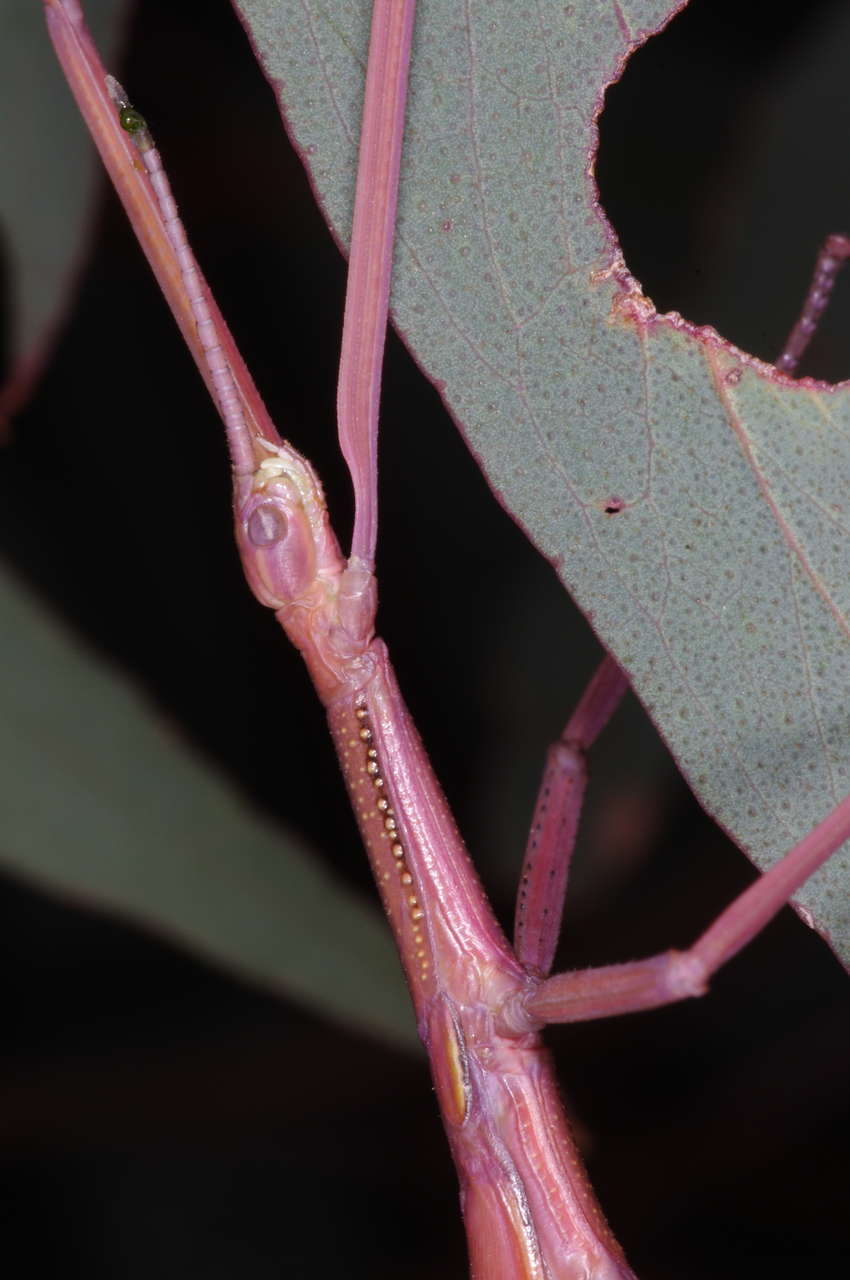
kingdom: Animalia
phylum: Arthropoda
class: Insecta
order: Phasmida
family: Phasmatidae
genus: Didymuria
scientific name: Didymuria violescens
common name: Spur-legged stick-insect
